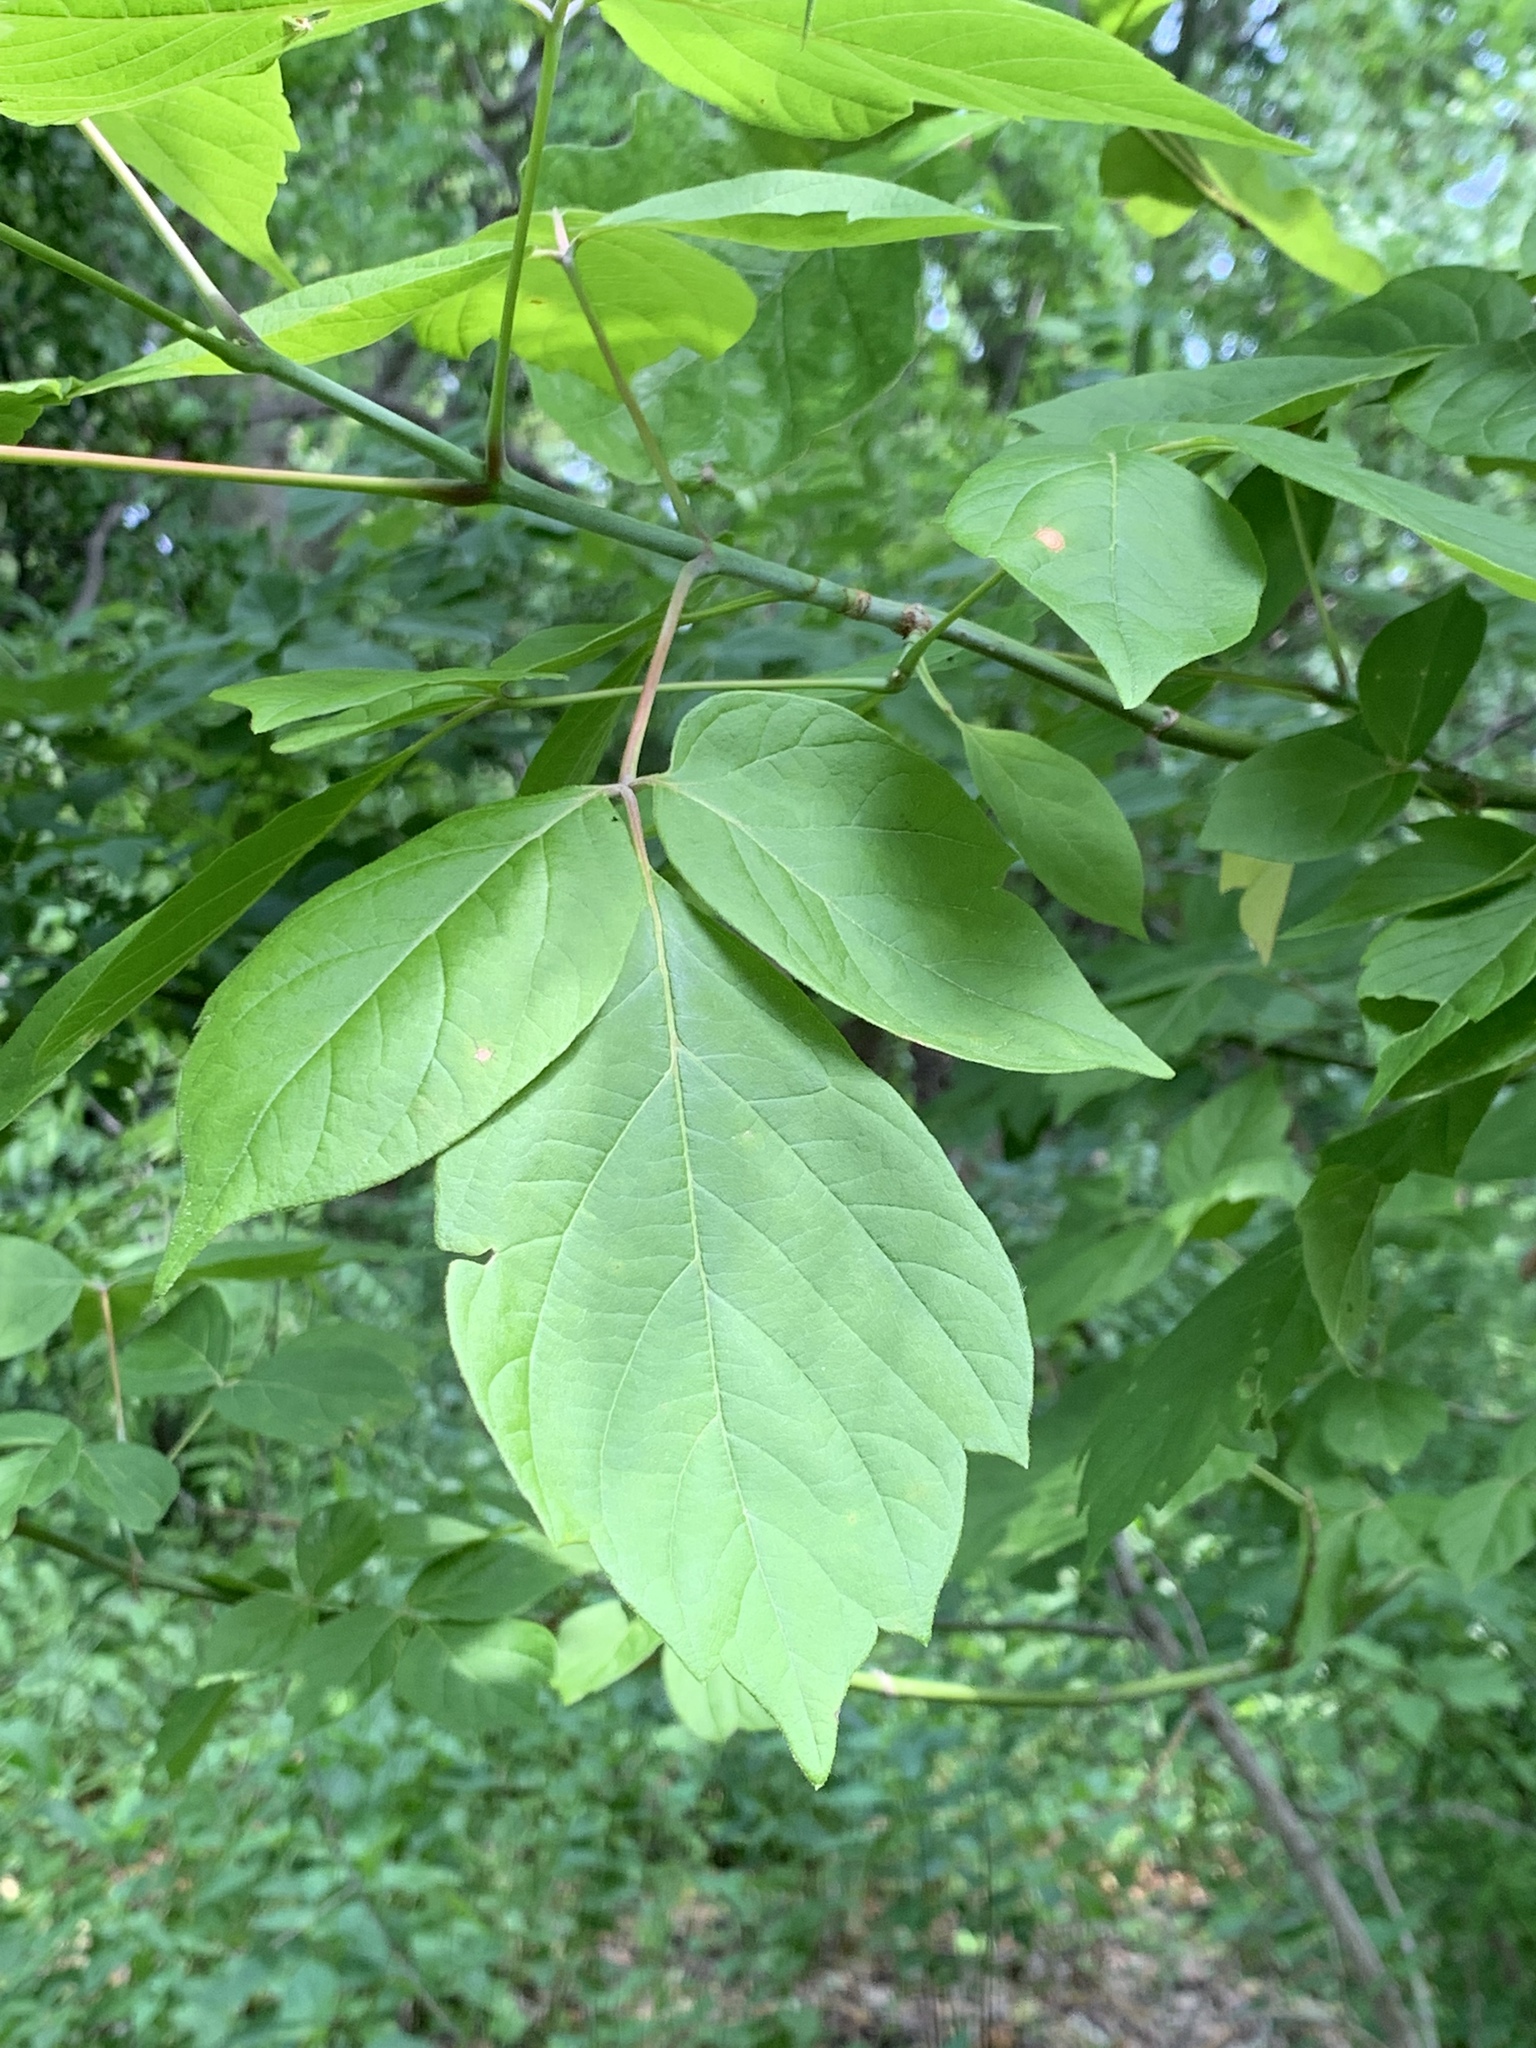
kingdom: Plantae
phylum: Tracheophyta
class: Magnoliopsida
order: Sapindales
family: Sapindaceae
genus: Acer
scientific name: Acer negundo
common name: Ashleaf maple
